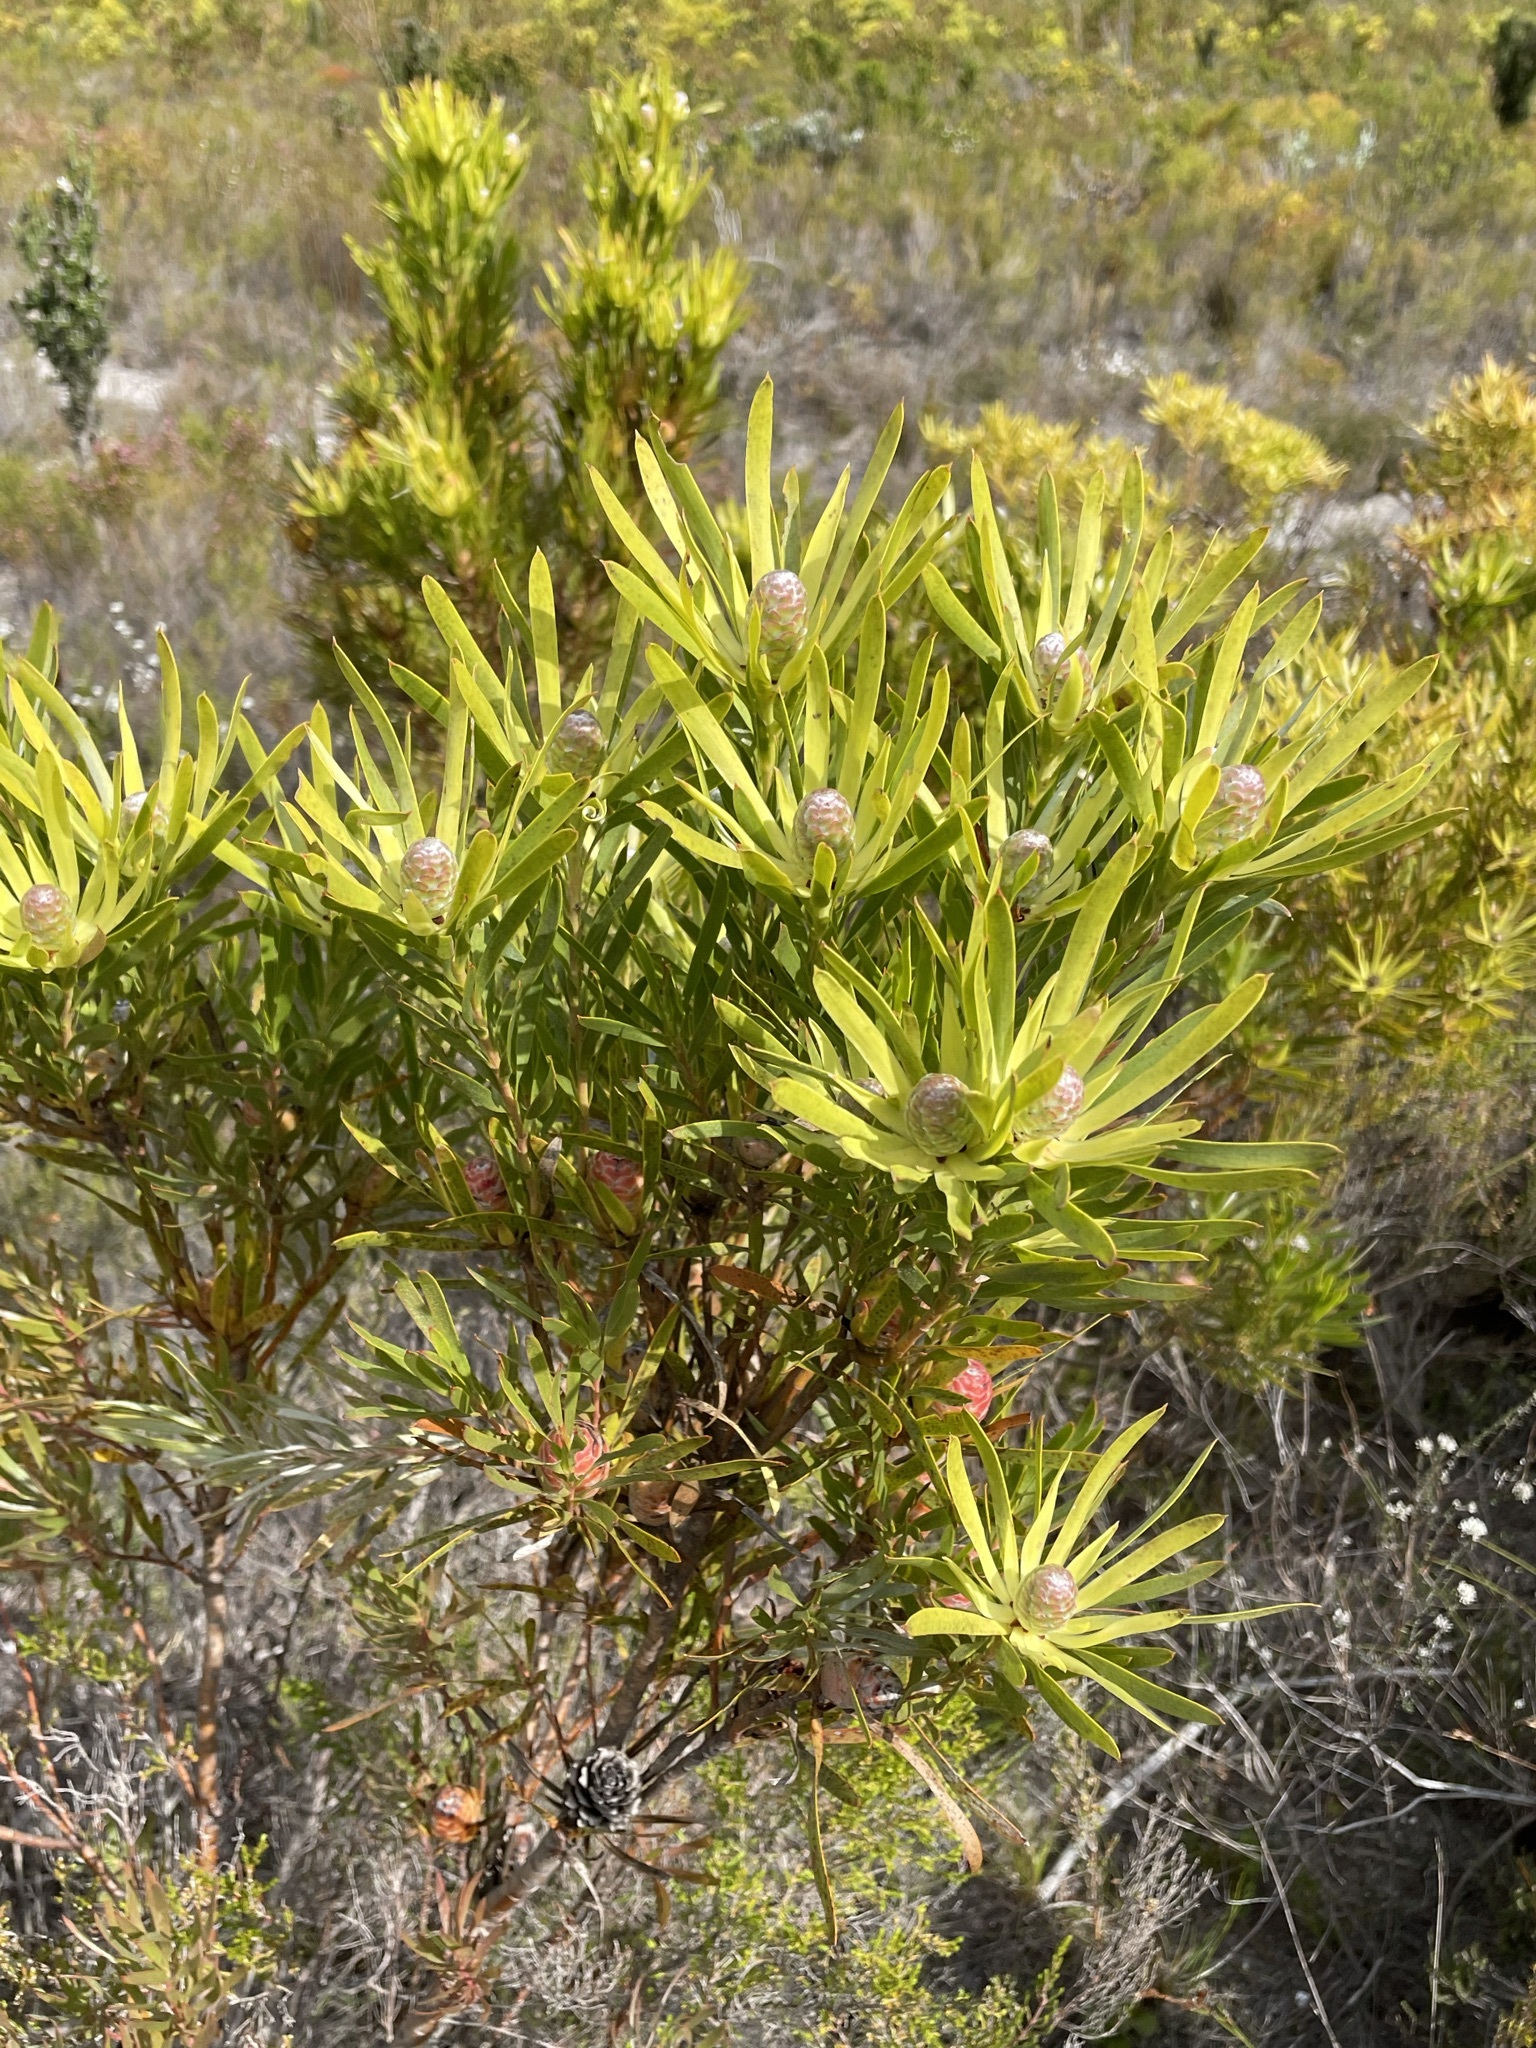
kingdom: Plantae
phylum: Tracheophyta
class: Magnoliopsida
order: Proteales
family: Proteaceae
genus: Leucadendron
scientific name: Leucadendron xanthoconus
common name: Sickle-leaf conebush
